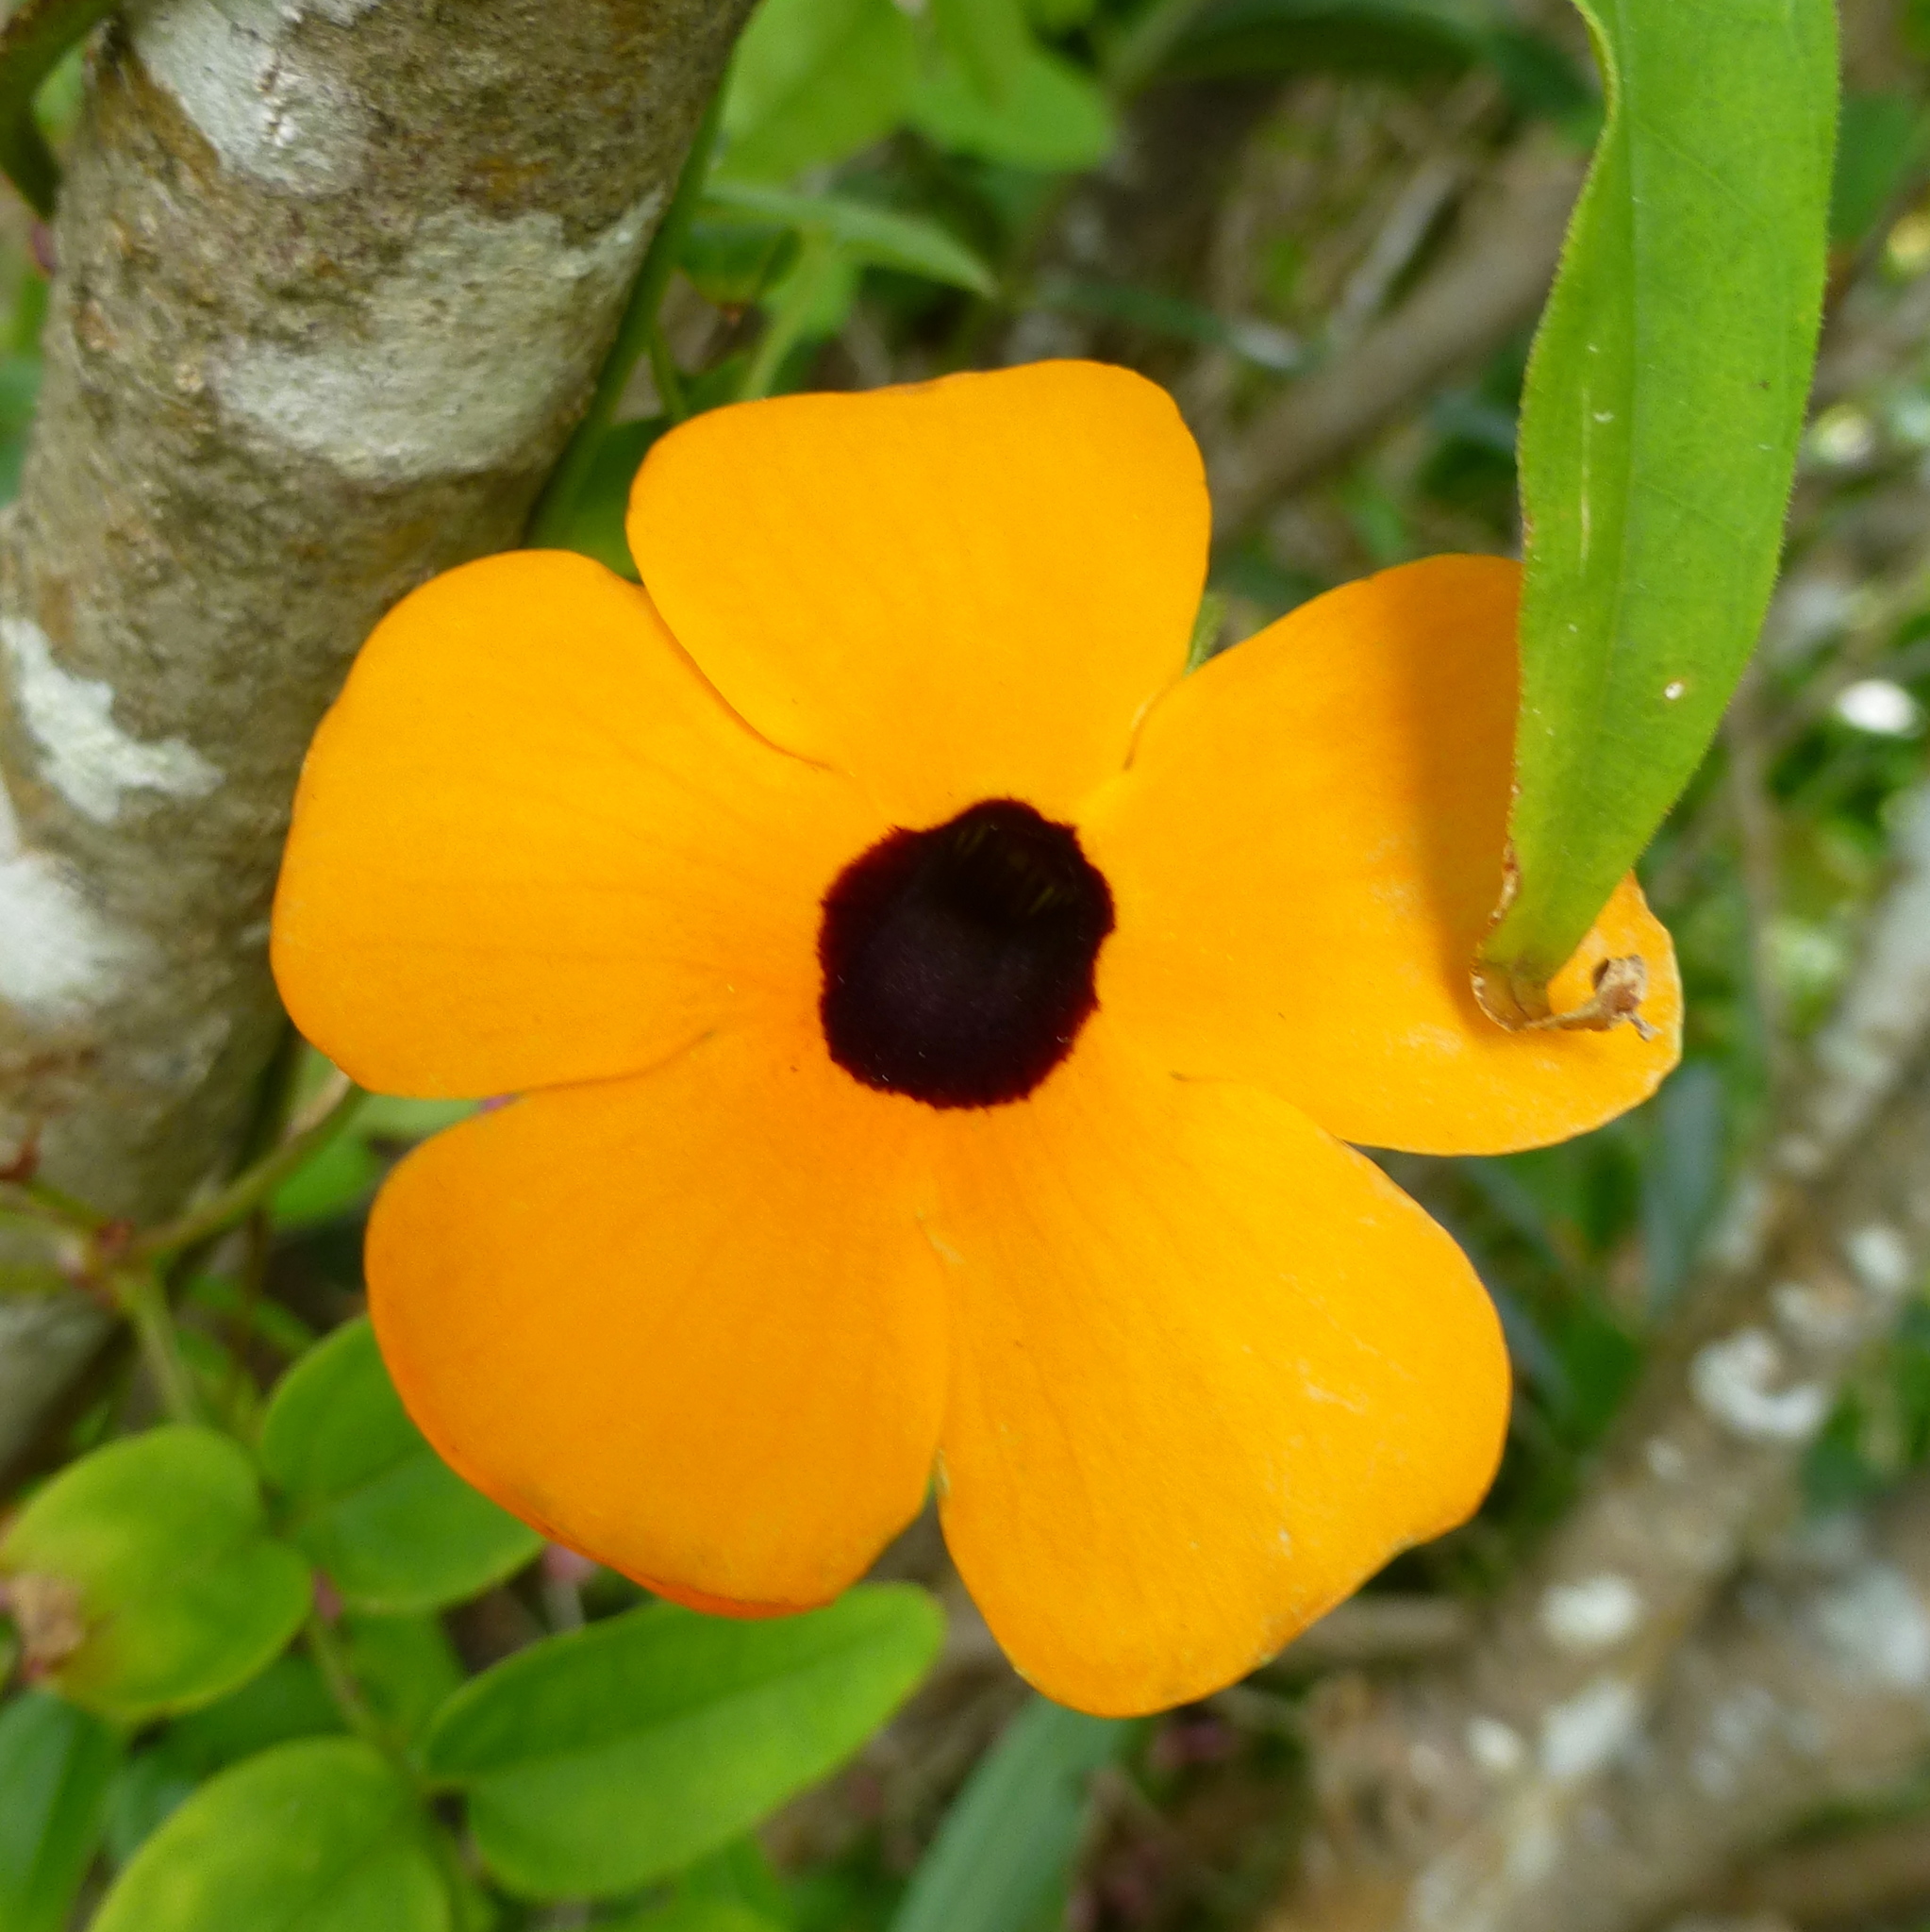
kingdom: Plantae
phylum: Tracheophyta
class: Magnoliopsida
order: Lamiales
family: Acanthaceae
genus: Thunbergia
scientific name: Thunbergia alata
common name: Blackeyed susan vine
